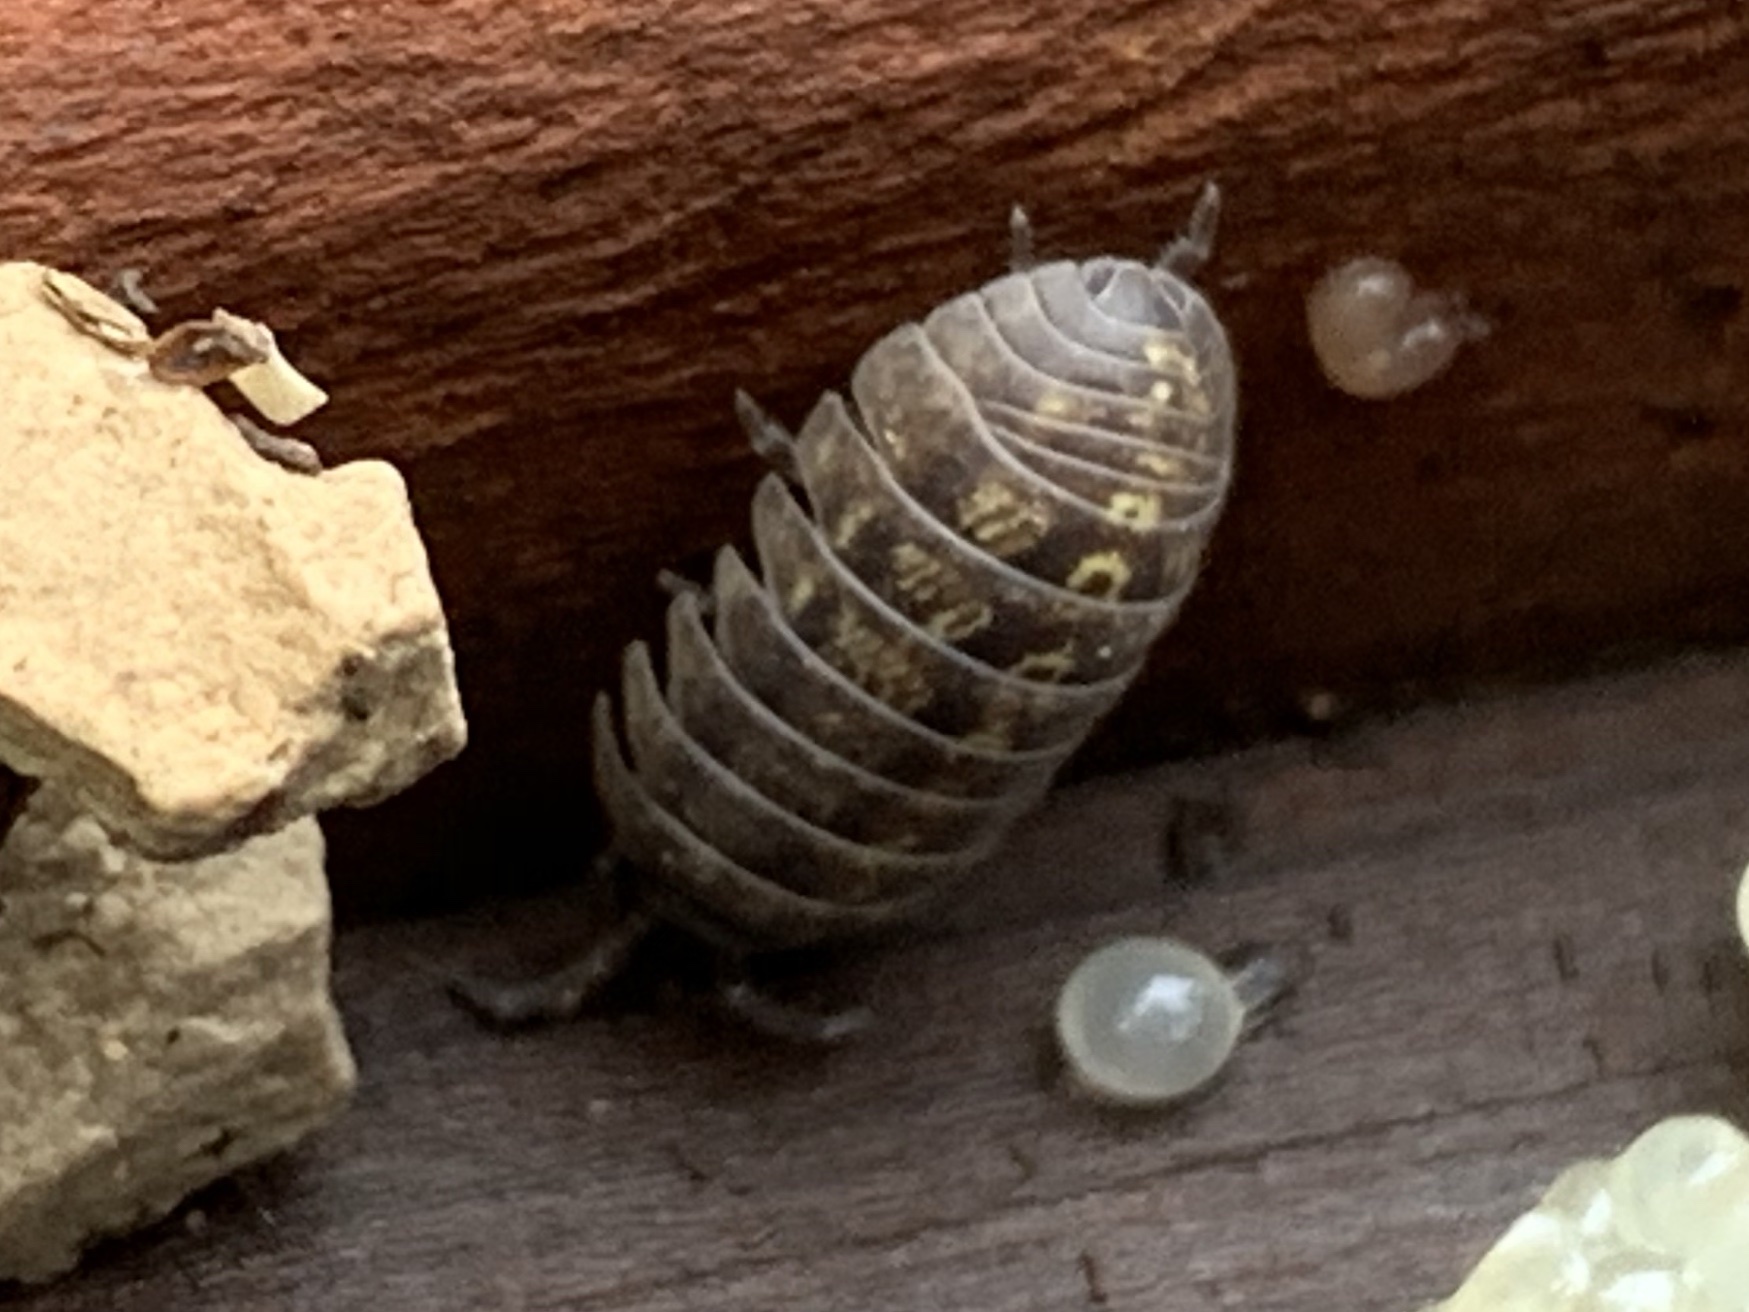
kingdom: Animalia
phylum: Arthropoda
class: Malacostraca
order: Isopoda
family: Armadillidiidae
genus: Armadillidium
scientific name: Armadillidium vulgare
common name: Common pill woodlouse
